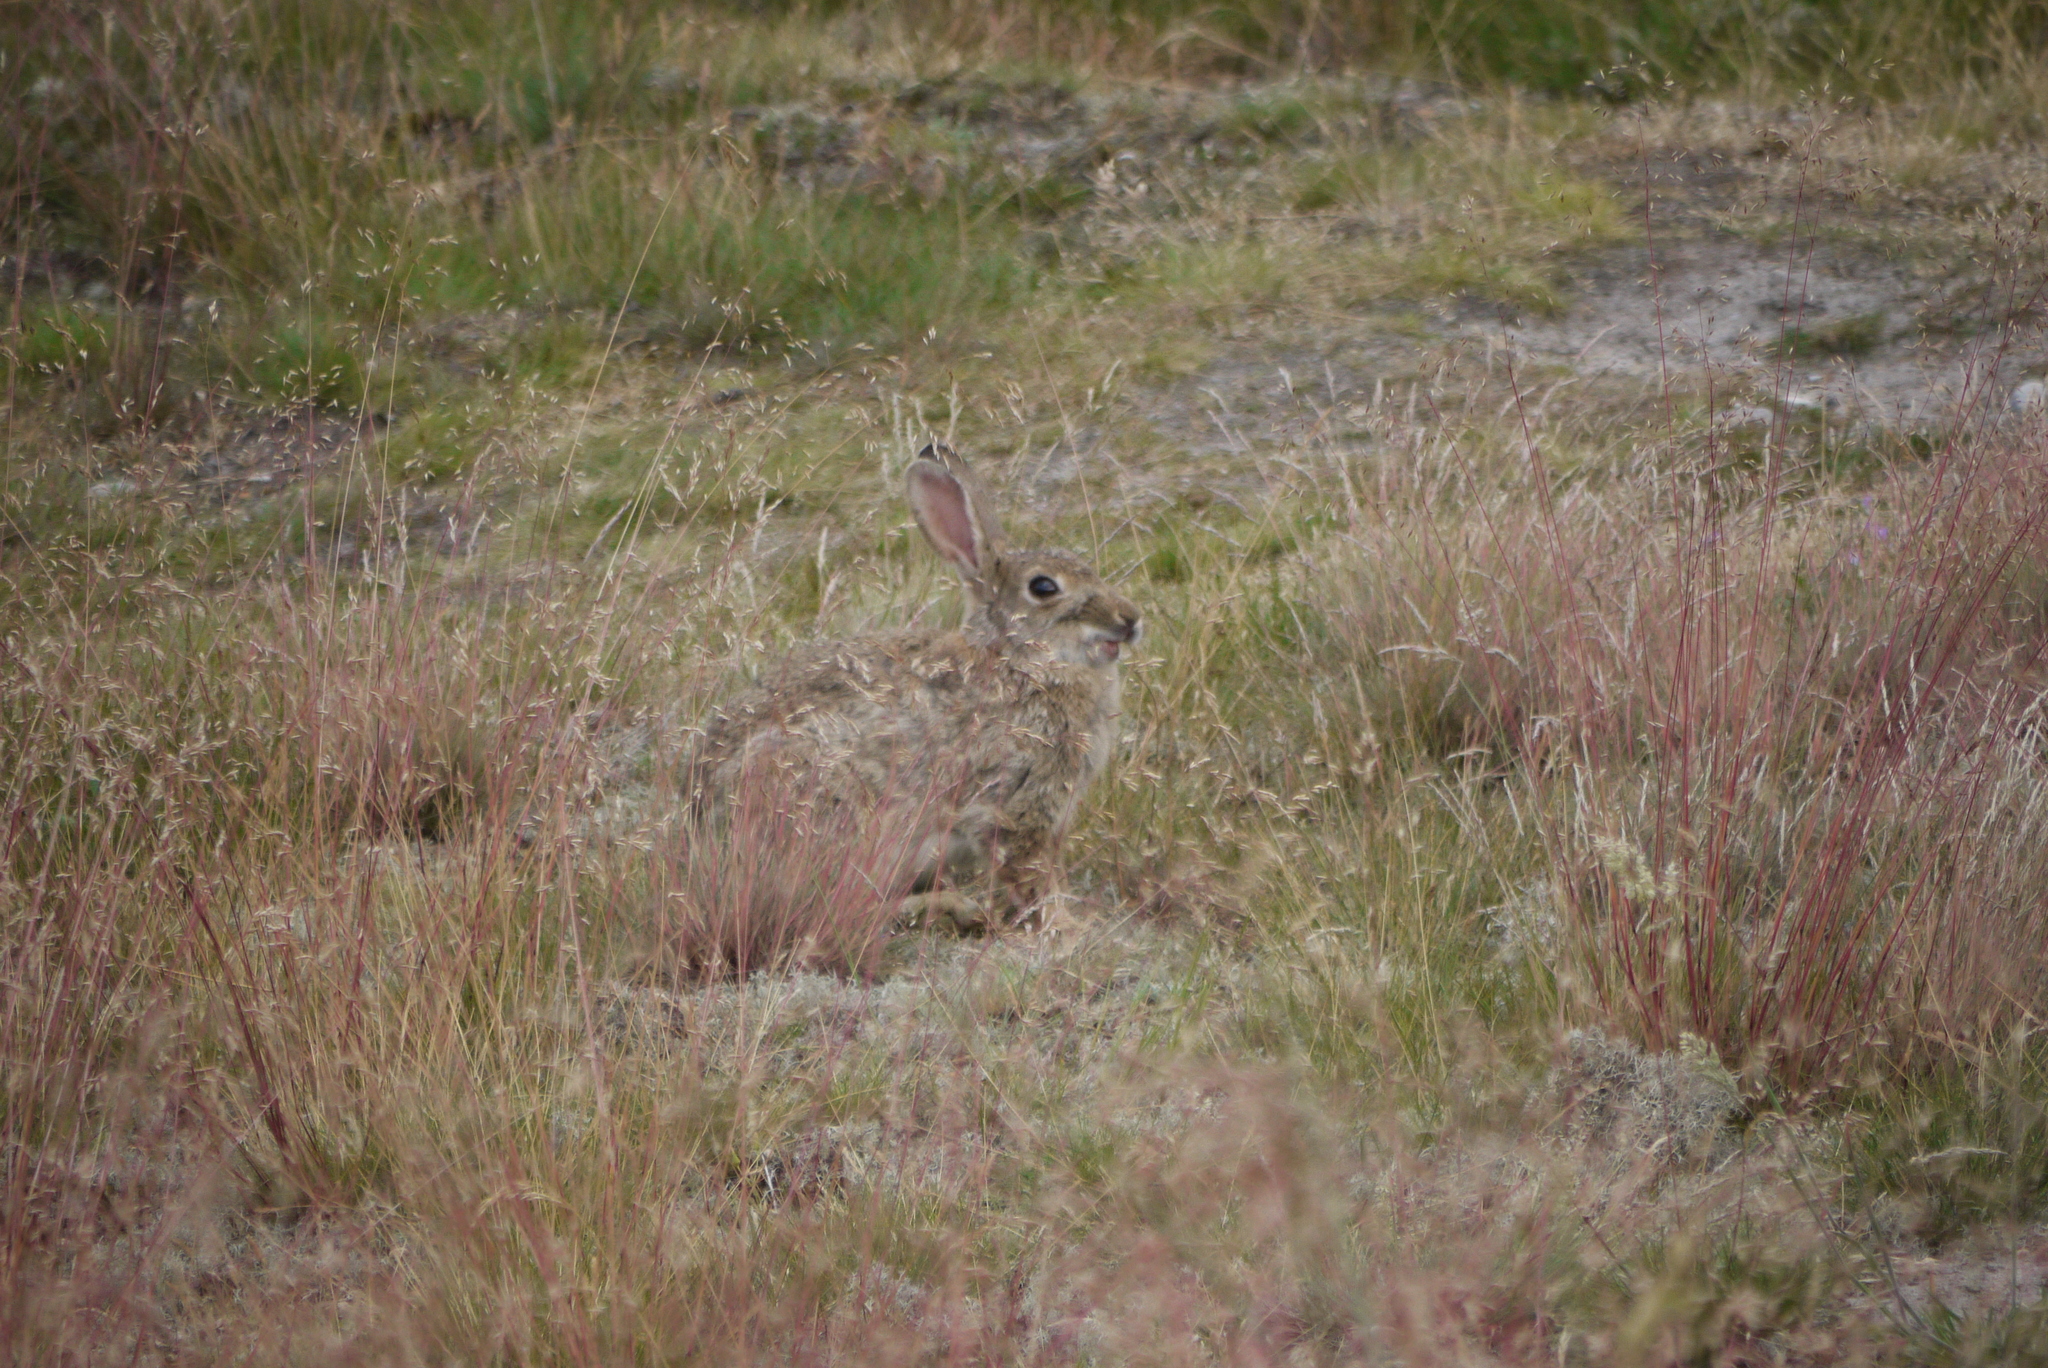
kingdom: Animalia
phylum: Chordata
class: Mammalia
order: Lagomorpha
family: Leporidae
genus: Oryctolagus
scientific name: Oryctolagus cuniculus
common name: European rabbit
